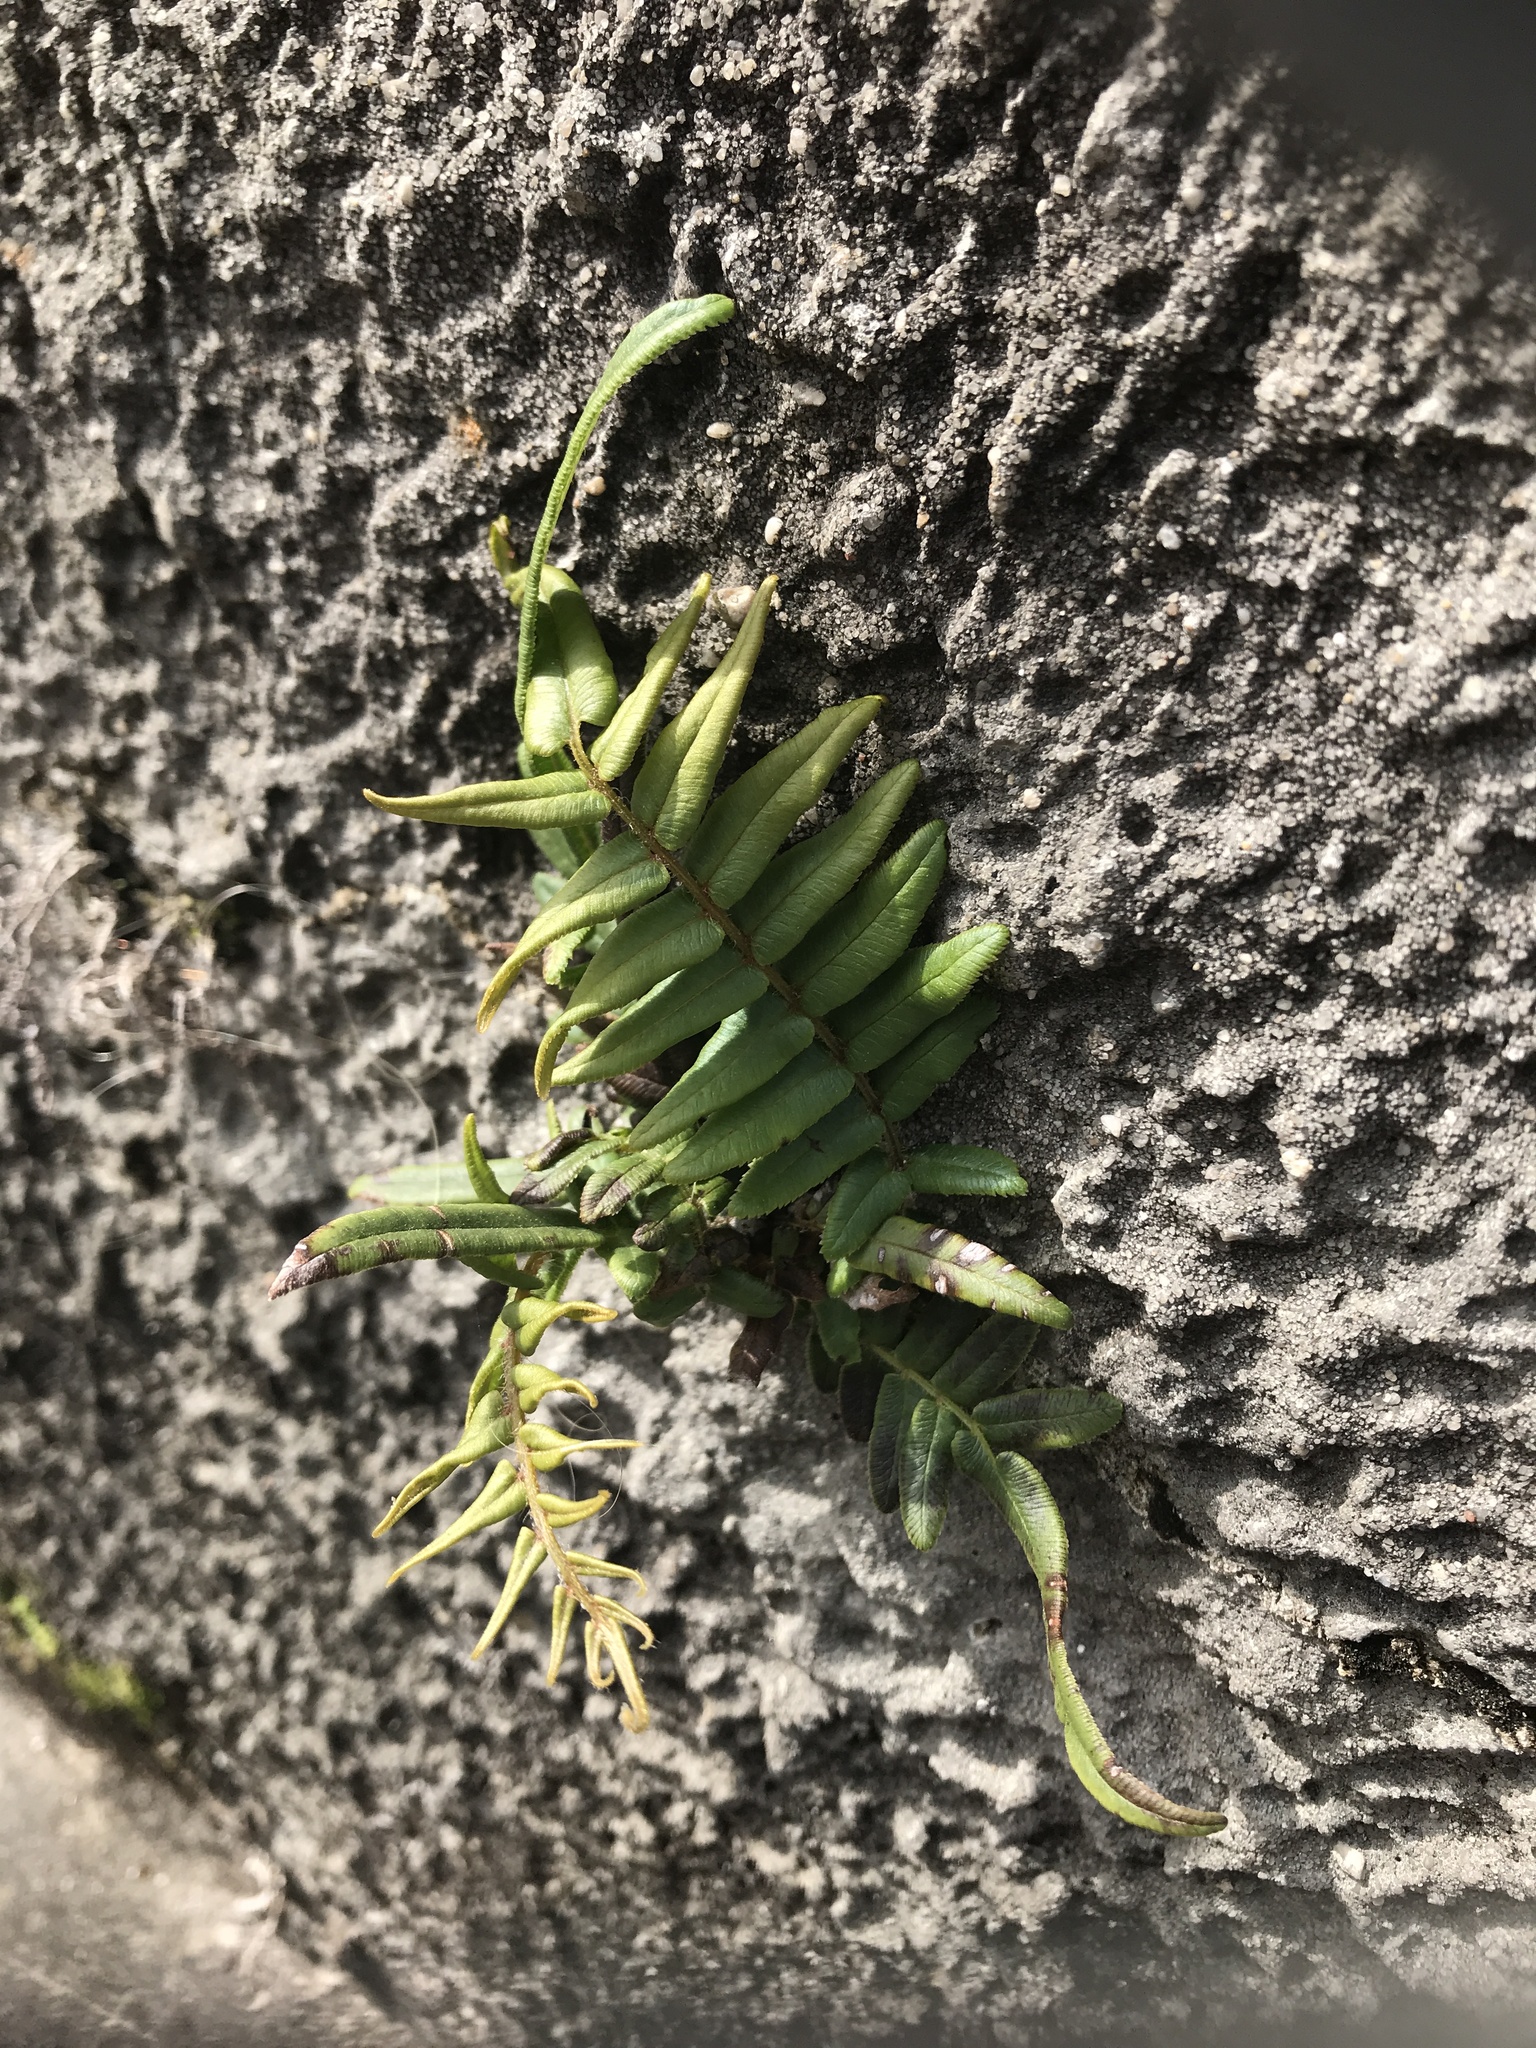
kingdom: Plantae
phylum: Tracheophyta
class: Polypodiopsida
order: Polypodiales
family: Pteridaceae
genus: Pteris
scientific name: Pteris vittata
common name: Ladder brake
